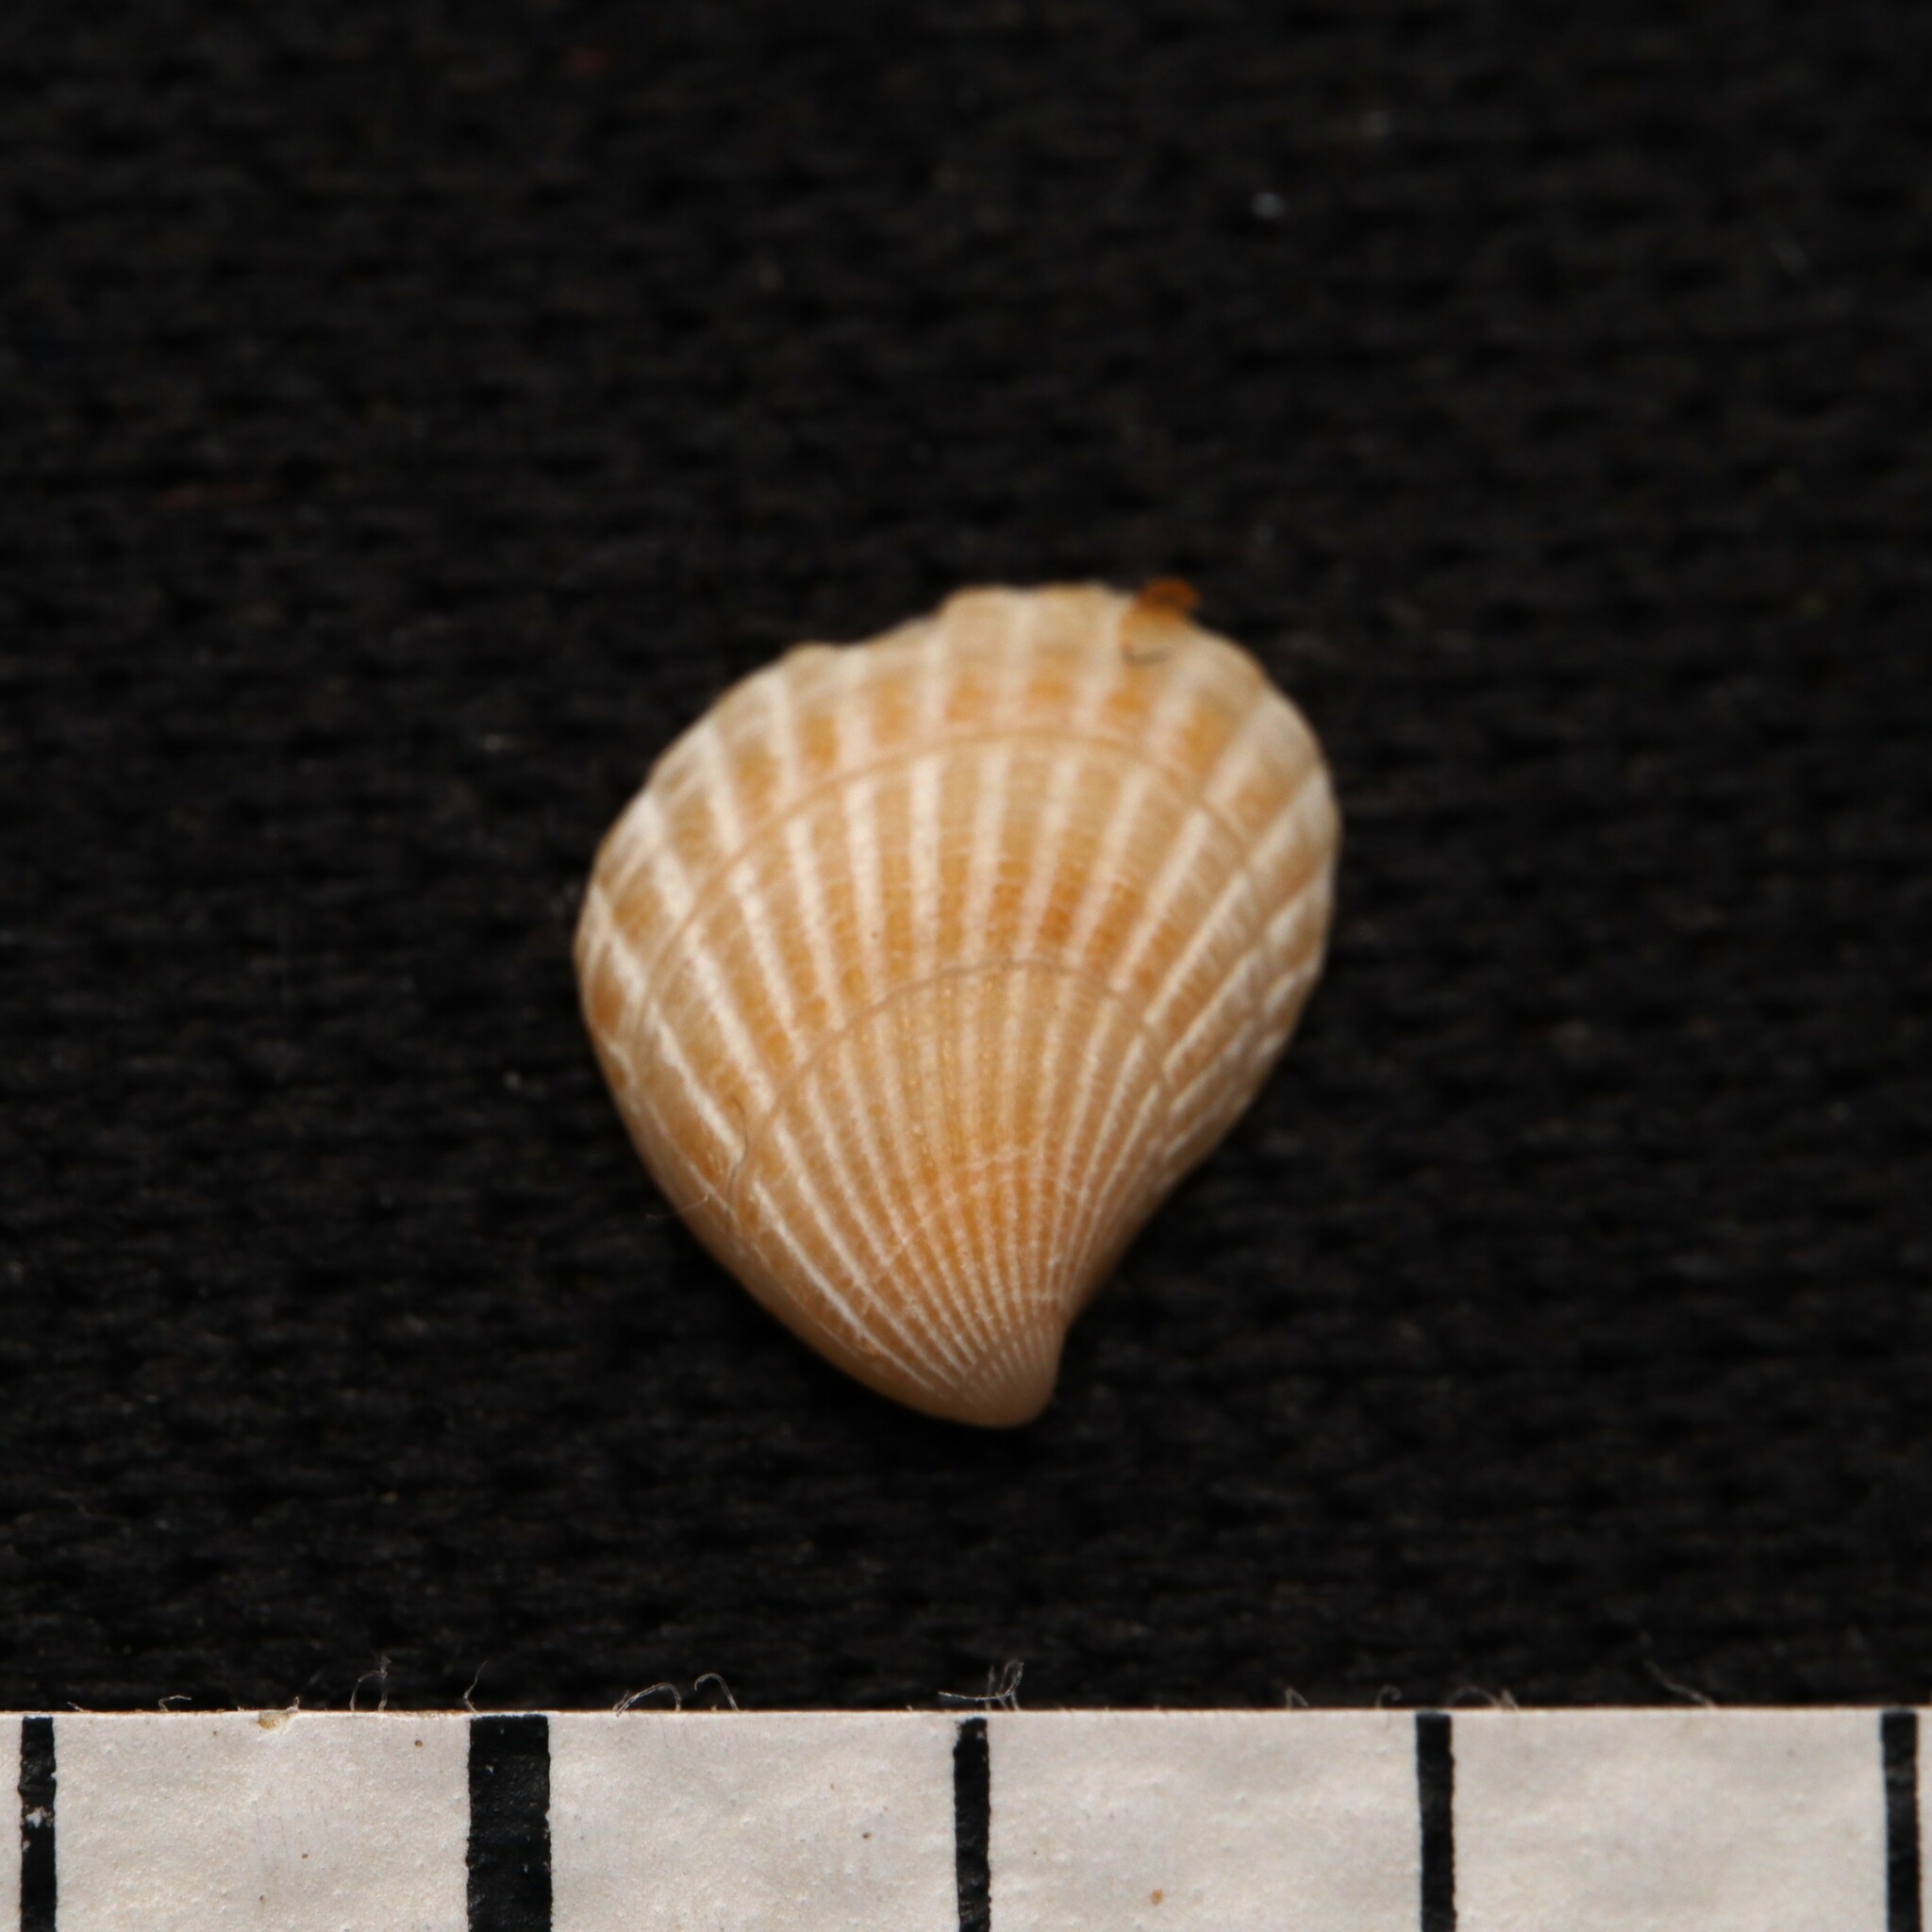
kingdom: Animalia
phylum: Mollusca
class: Bivalvia
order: Carditida
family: Carditidae
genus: Pteromeris
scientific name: Pteromeris perplana
